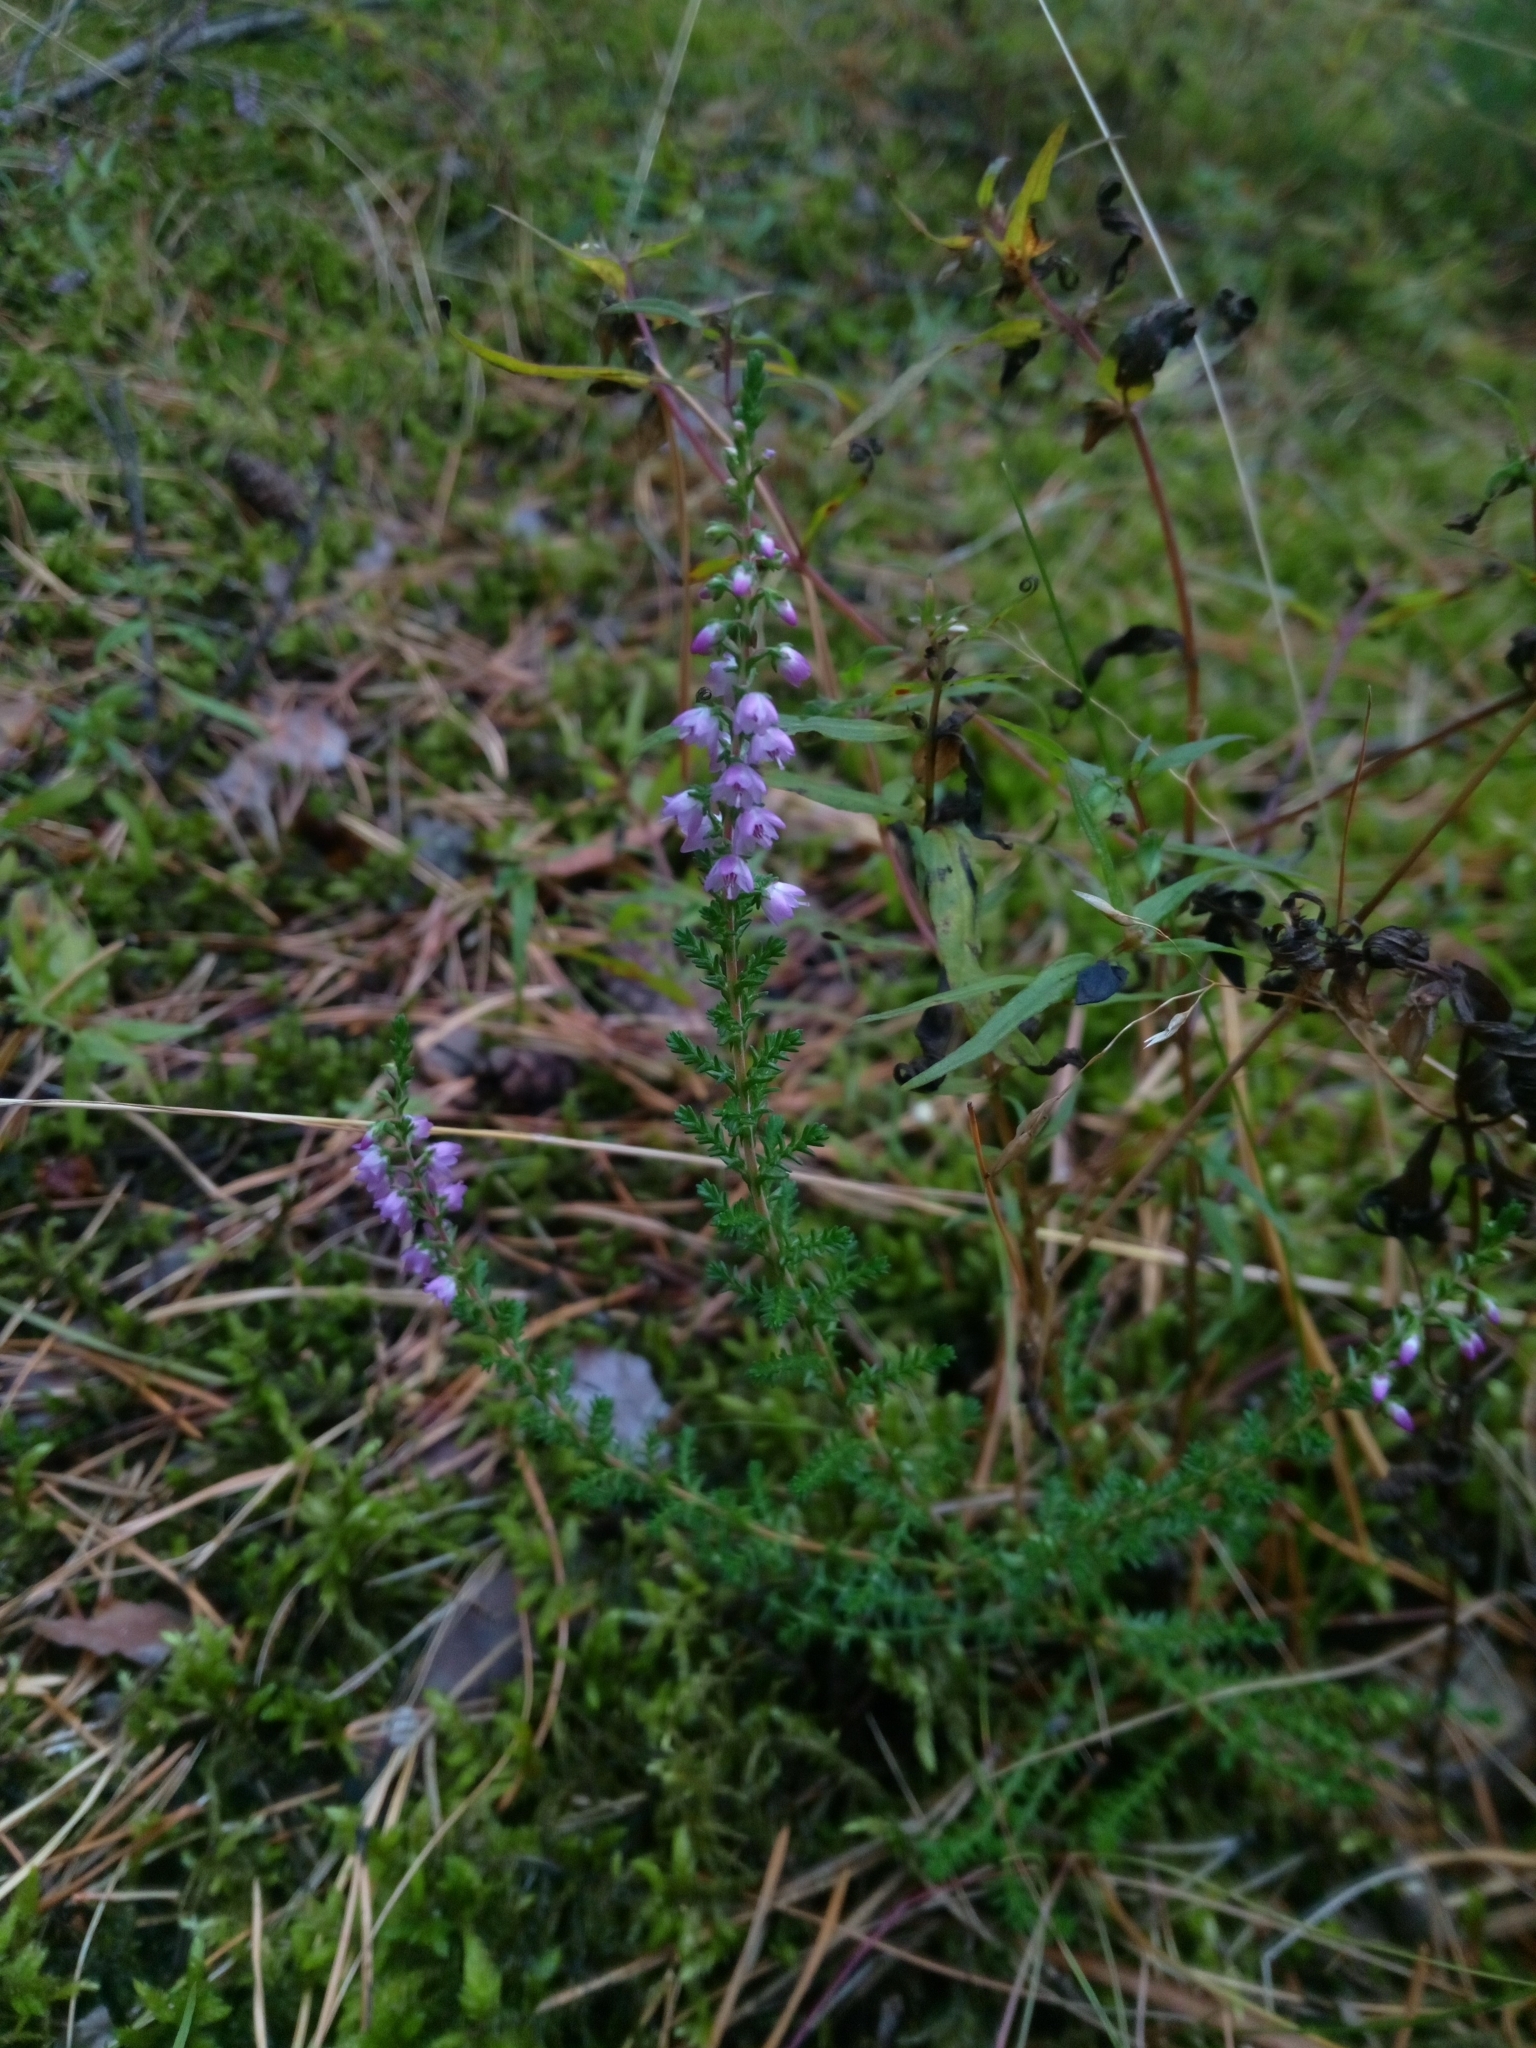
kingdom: Plantae
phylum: Tracheophyta
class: Magnoliopsida
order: Ericales
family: Ericaceae
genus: Calluna
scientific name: Calluna vulgaris
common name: Heather
